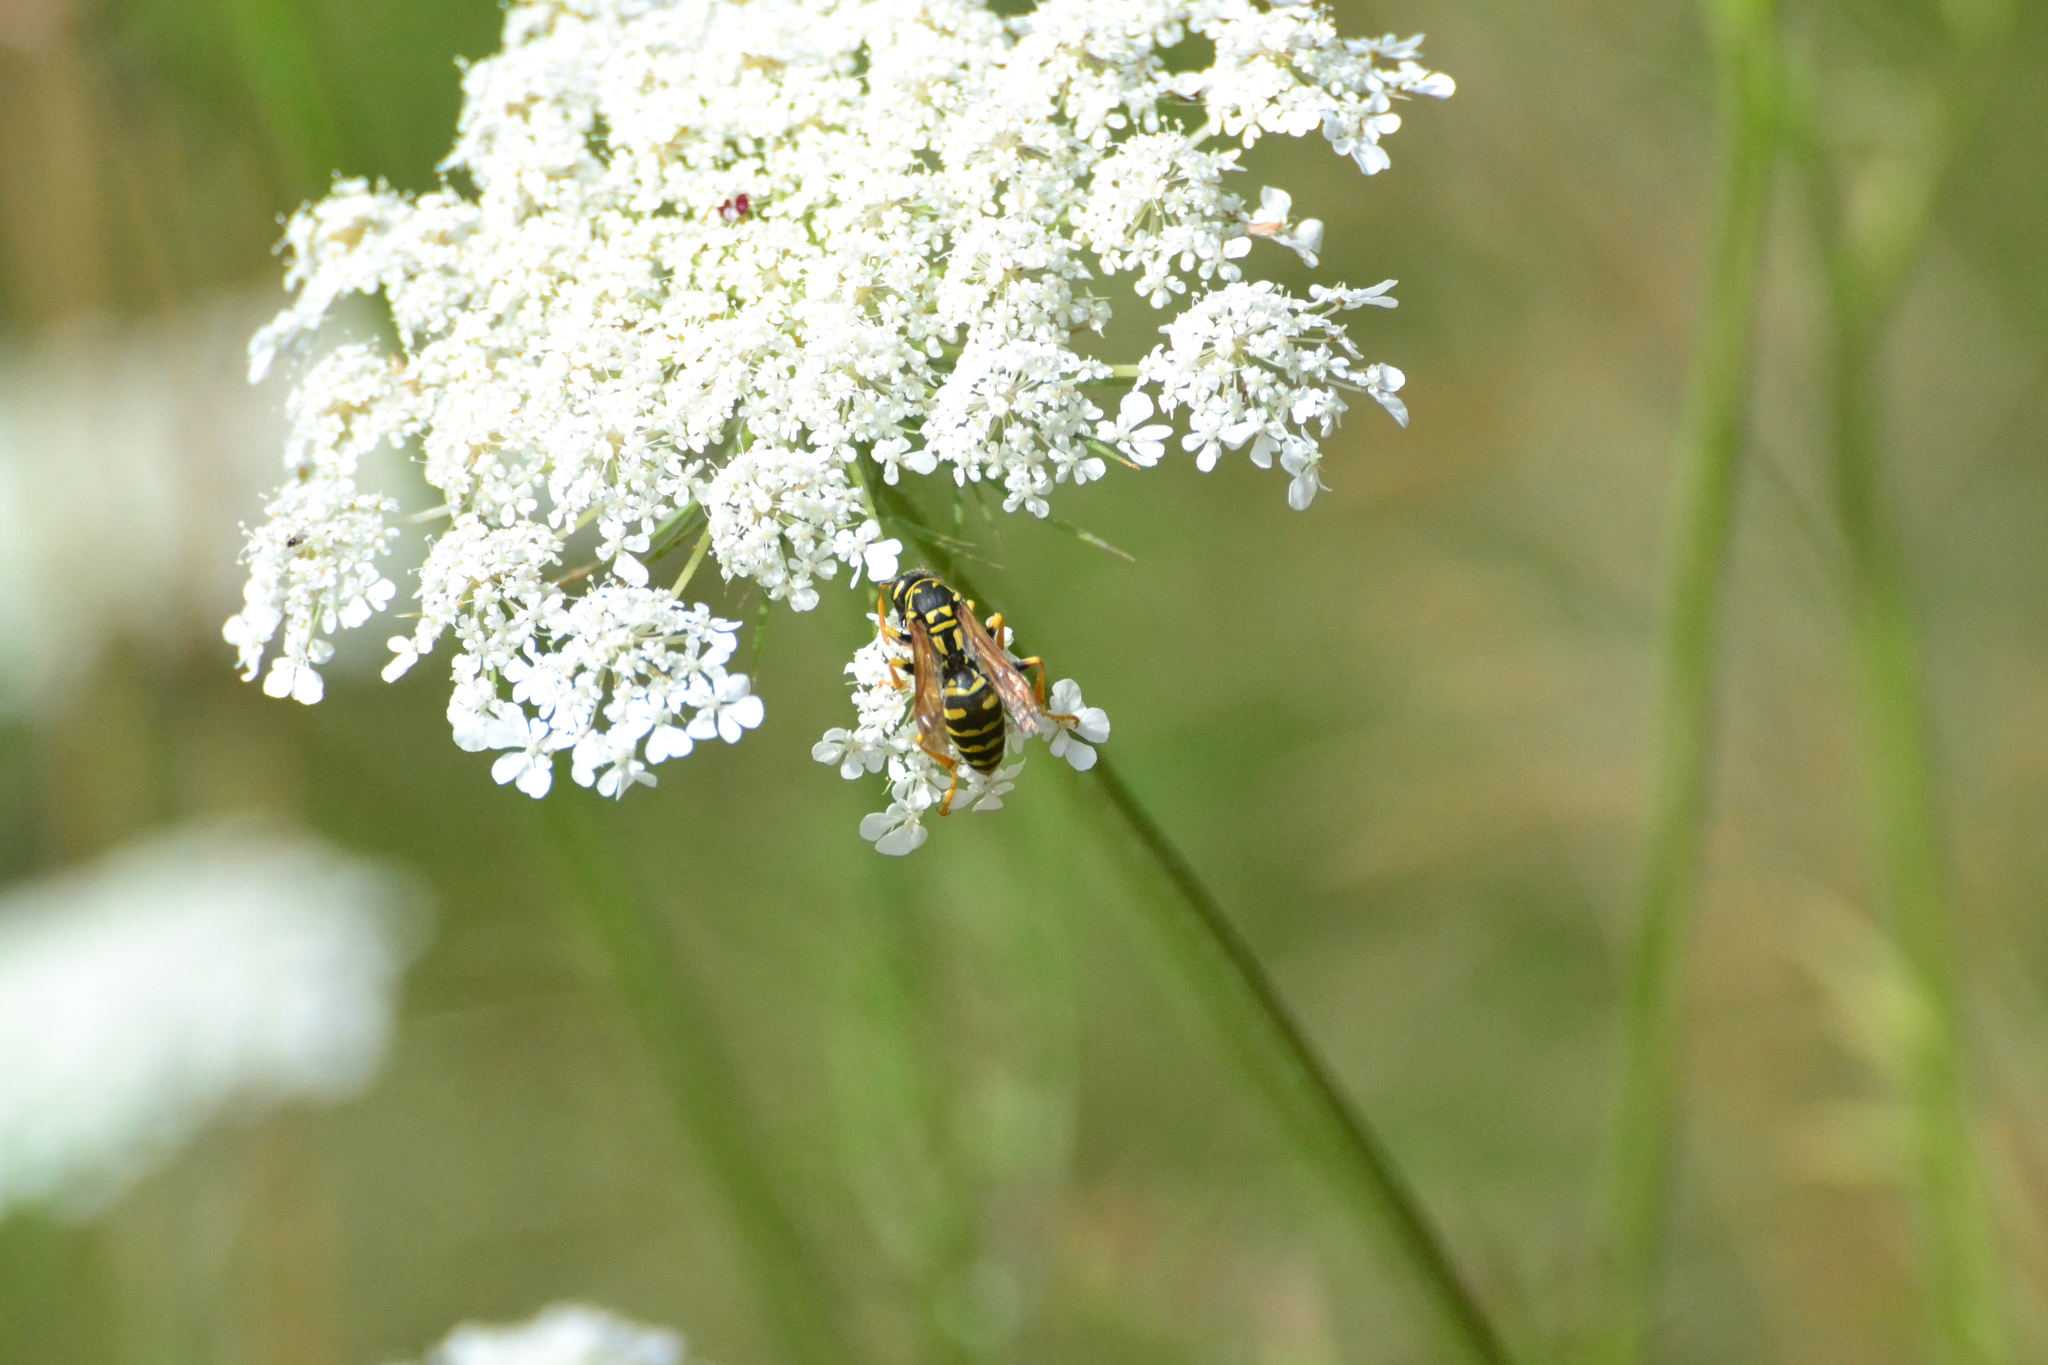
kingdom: Animalia
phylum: Arthropoda
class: Insecta
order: Hymenoptera
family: Eumenidae
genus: Polistes
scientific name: Polistes dominula
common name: Paper wasp
